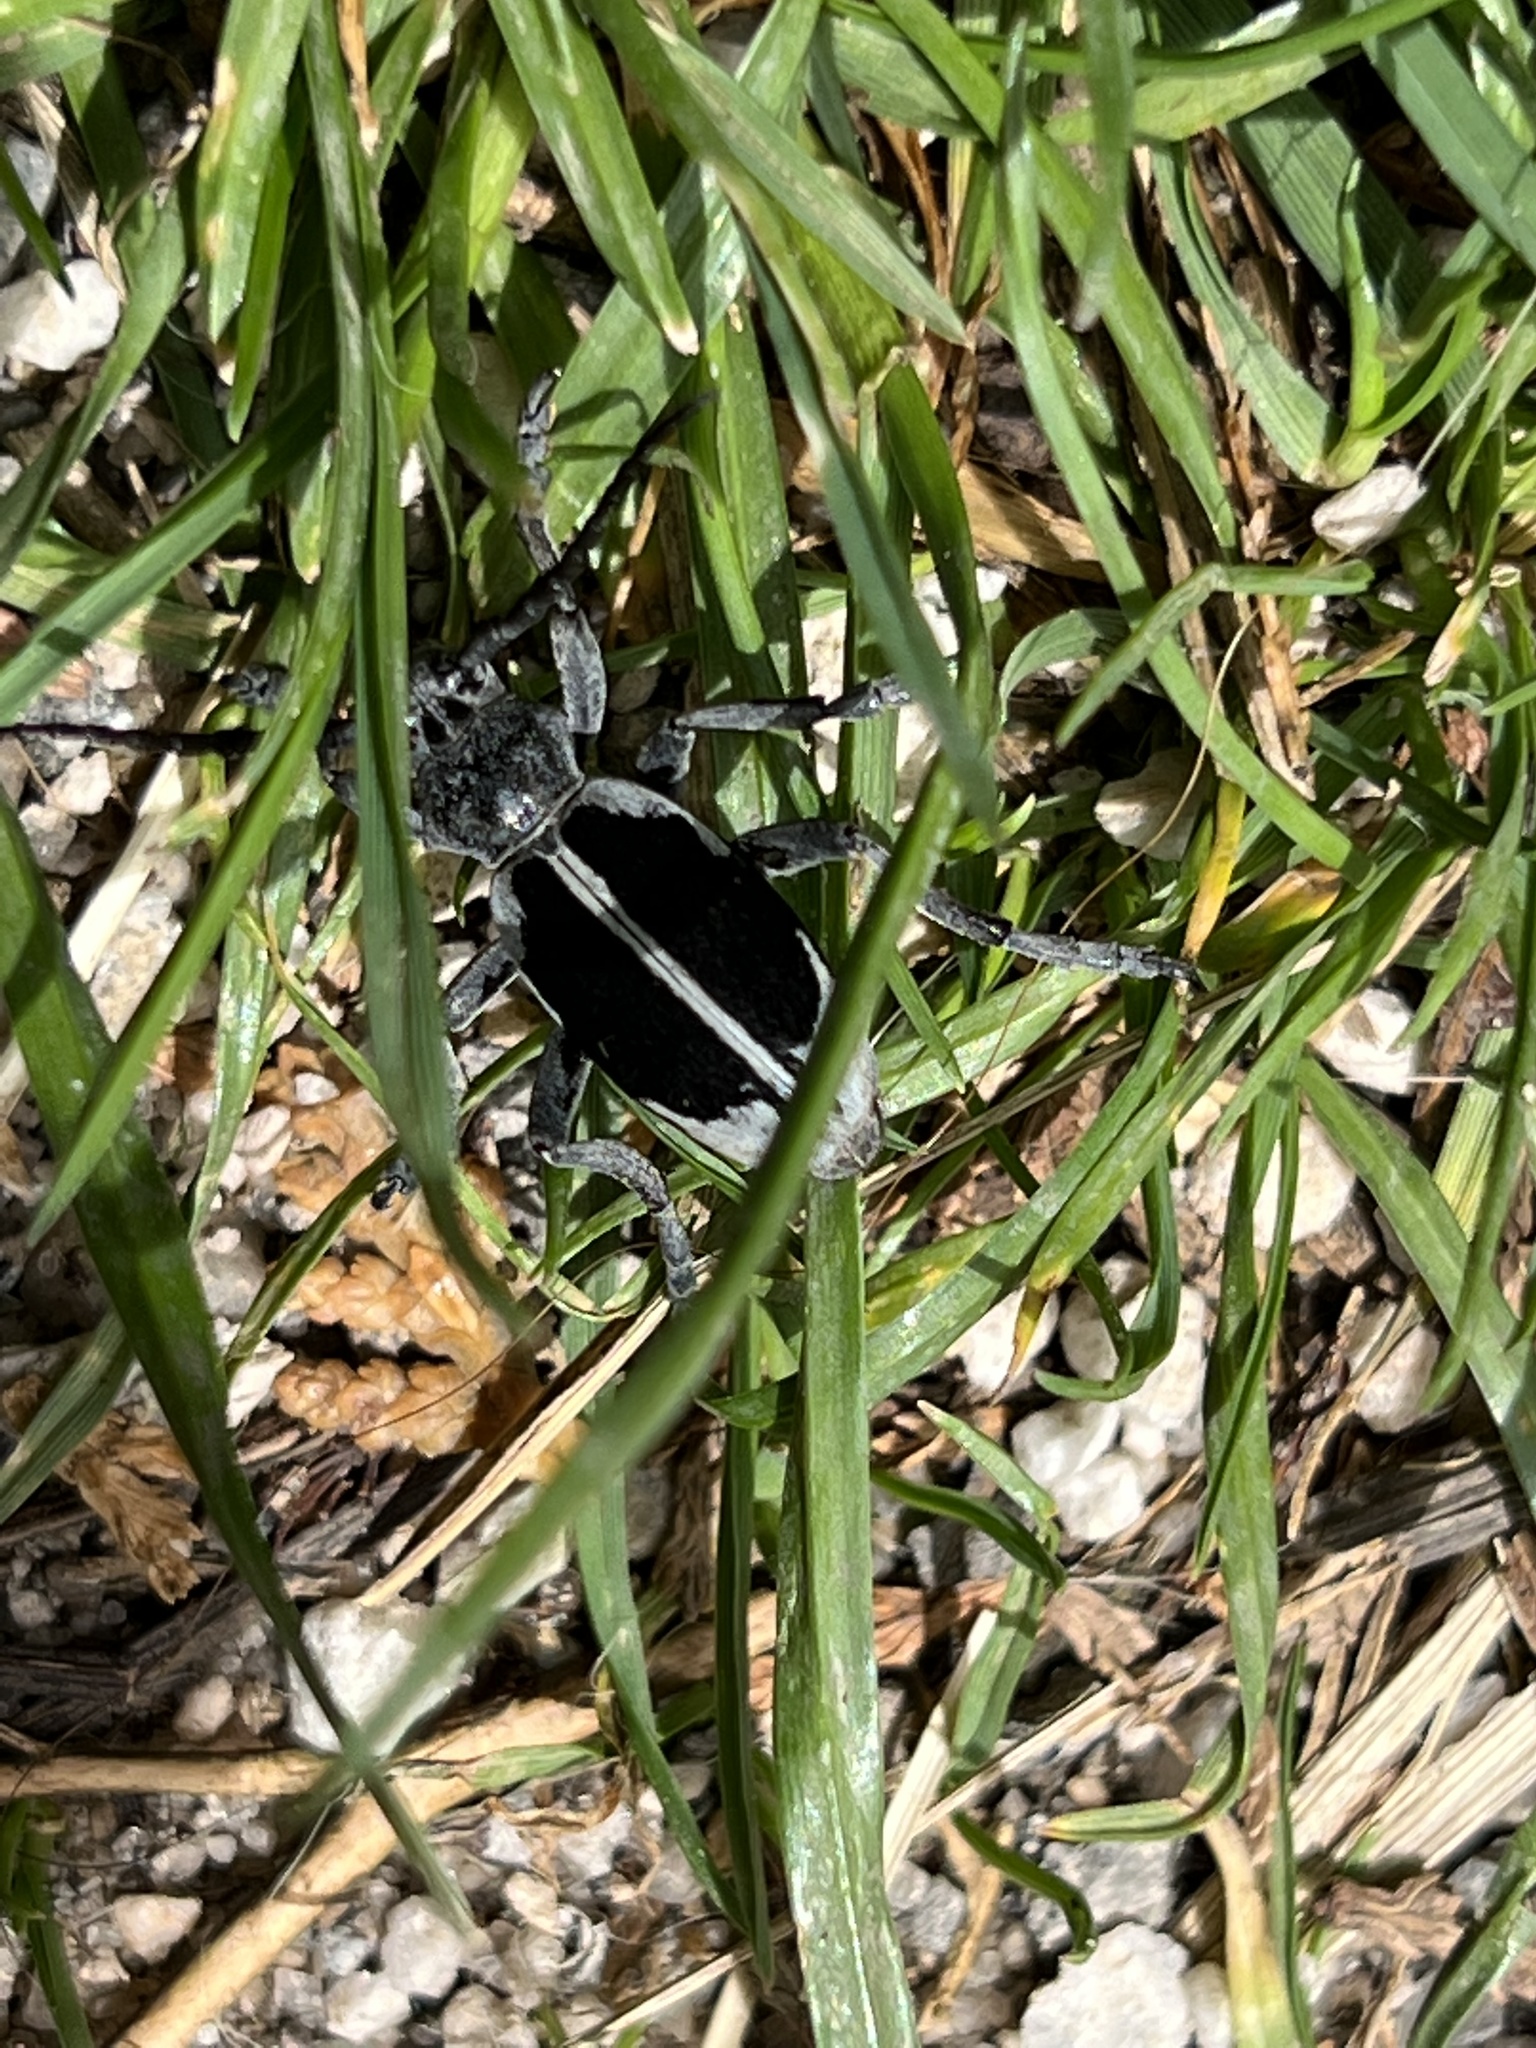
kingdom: Animalia
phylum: Arthropoda
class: Insecta
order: Coleoptera
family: Cerambycidae
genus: Dorcadion
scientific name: Dorcadion dimidiatum
